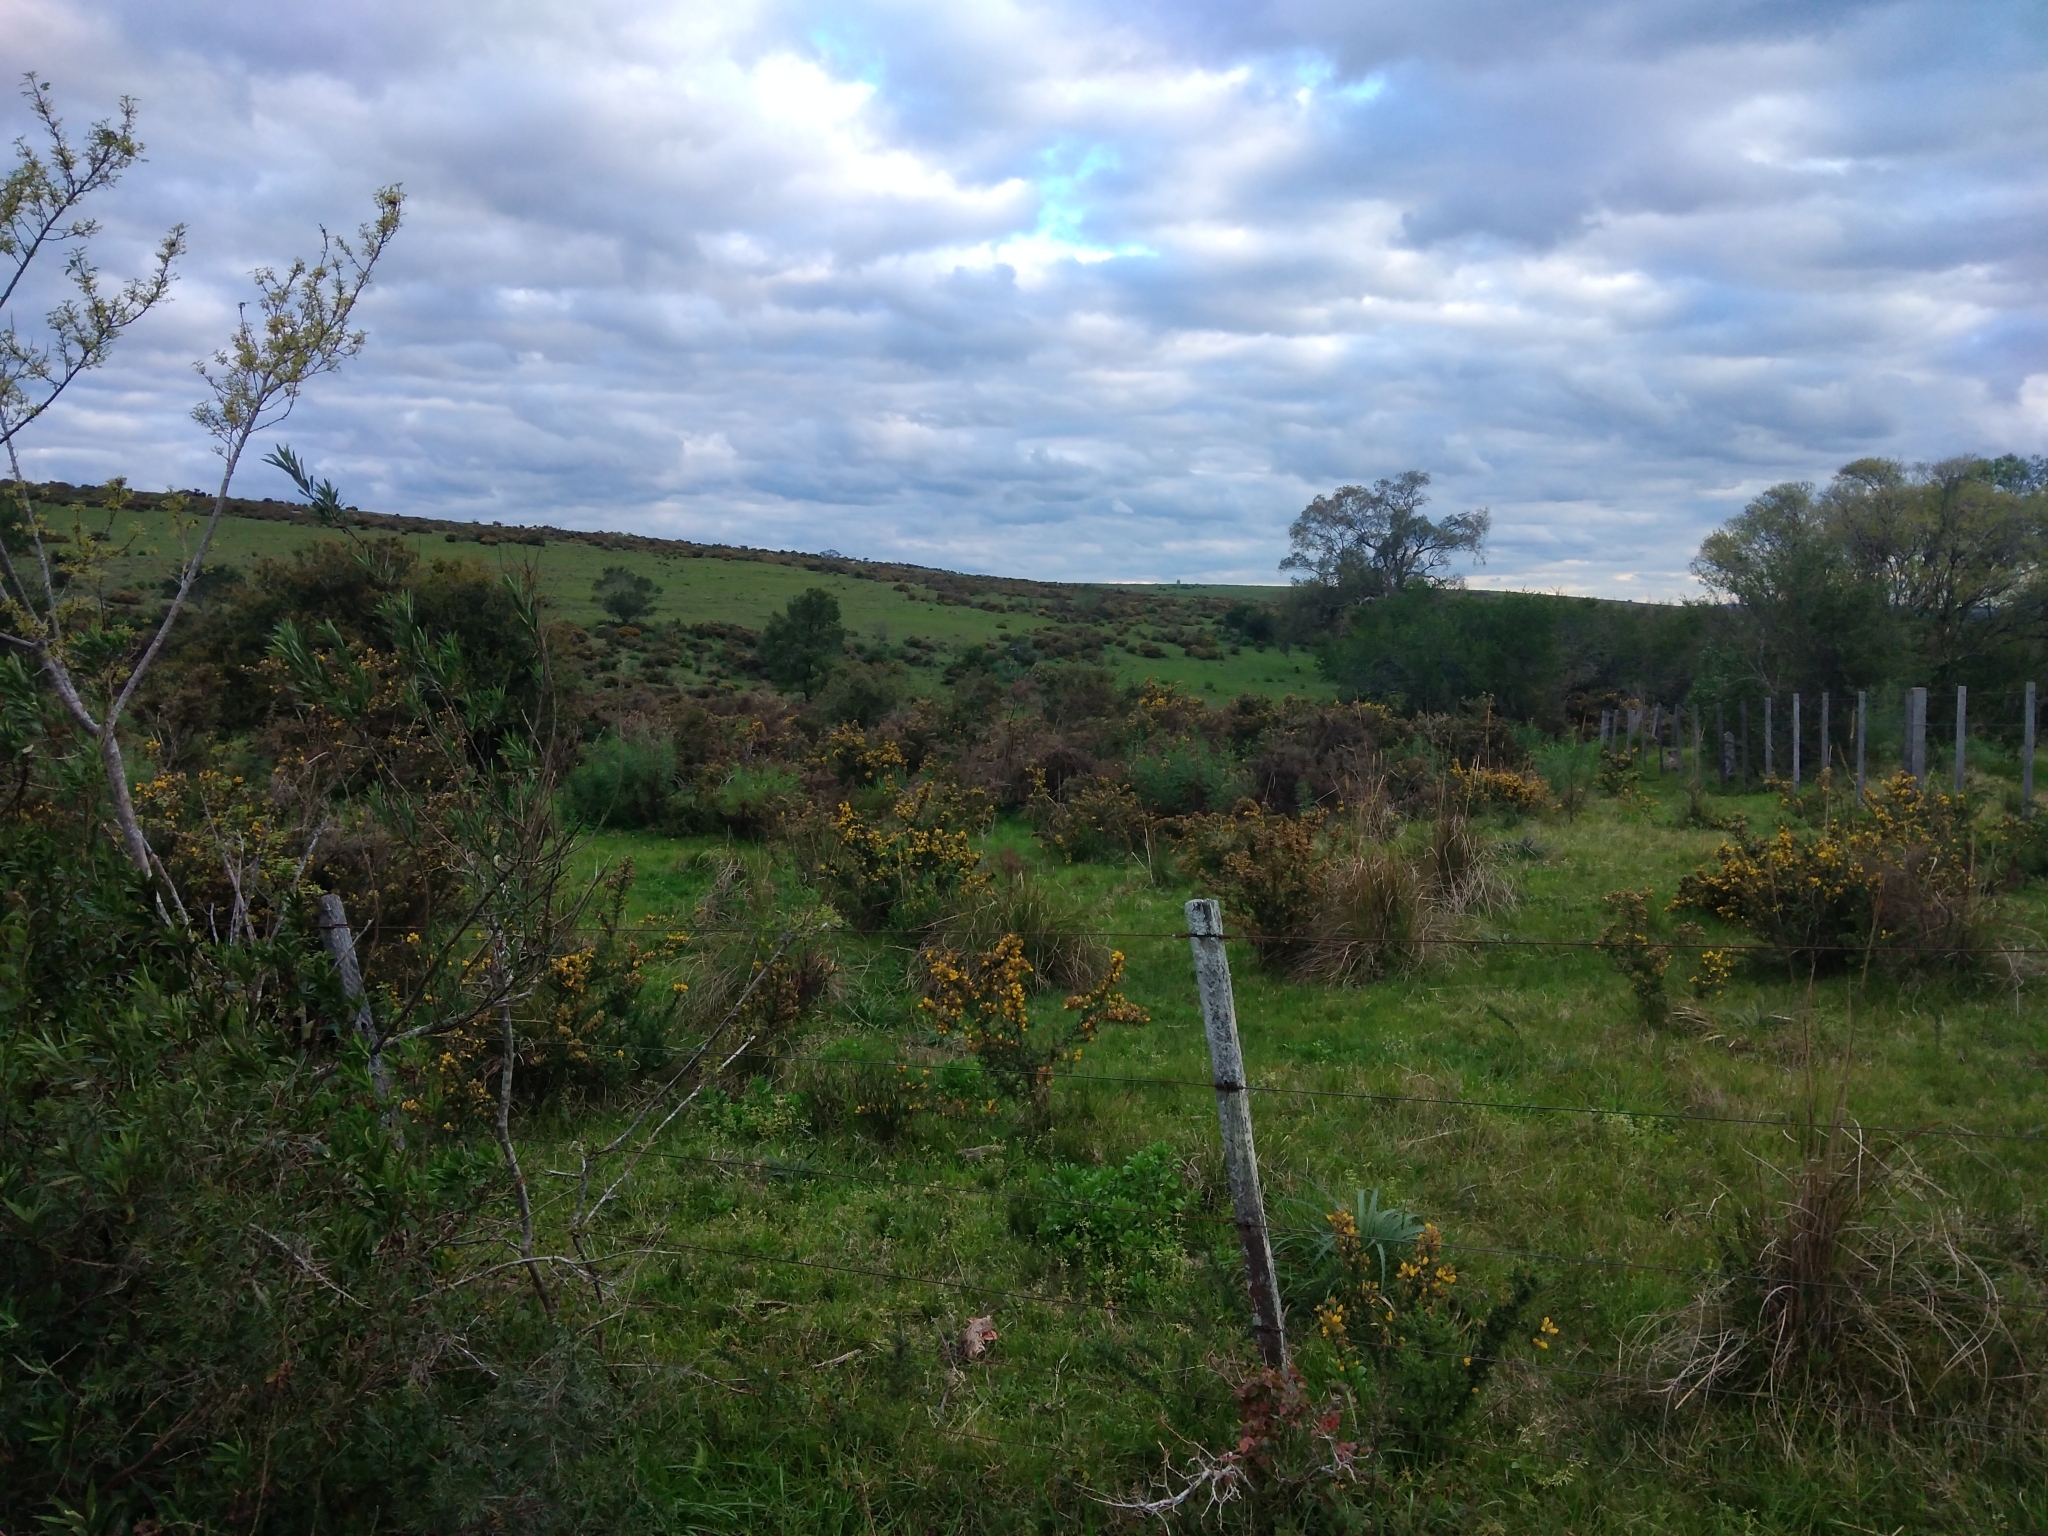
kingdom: Plantae
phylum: Tracheophyta
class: Magnoliopsida
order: Fabales
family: Fabaceae
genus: Ulex
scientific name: Ulex europaeus
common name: Common gorse
